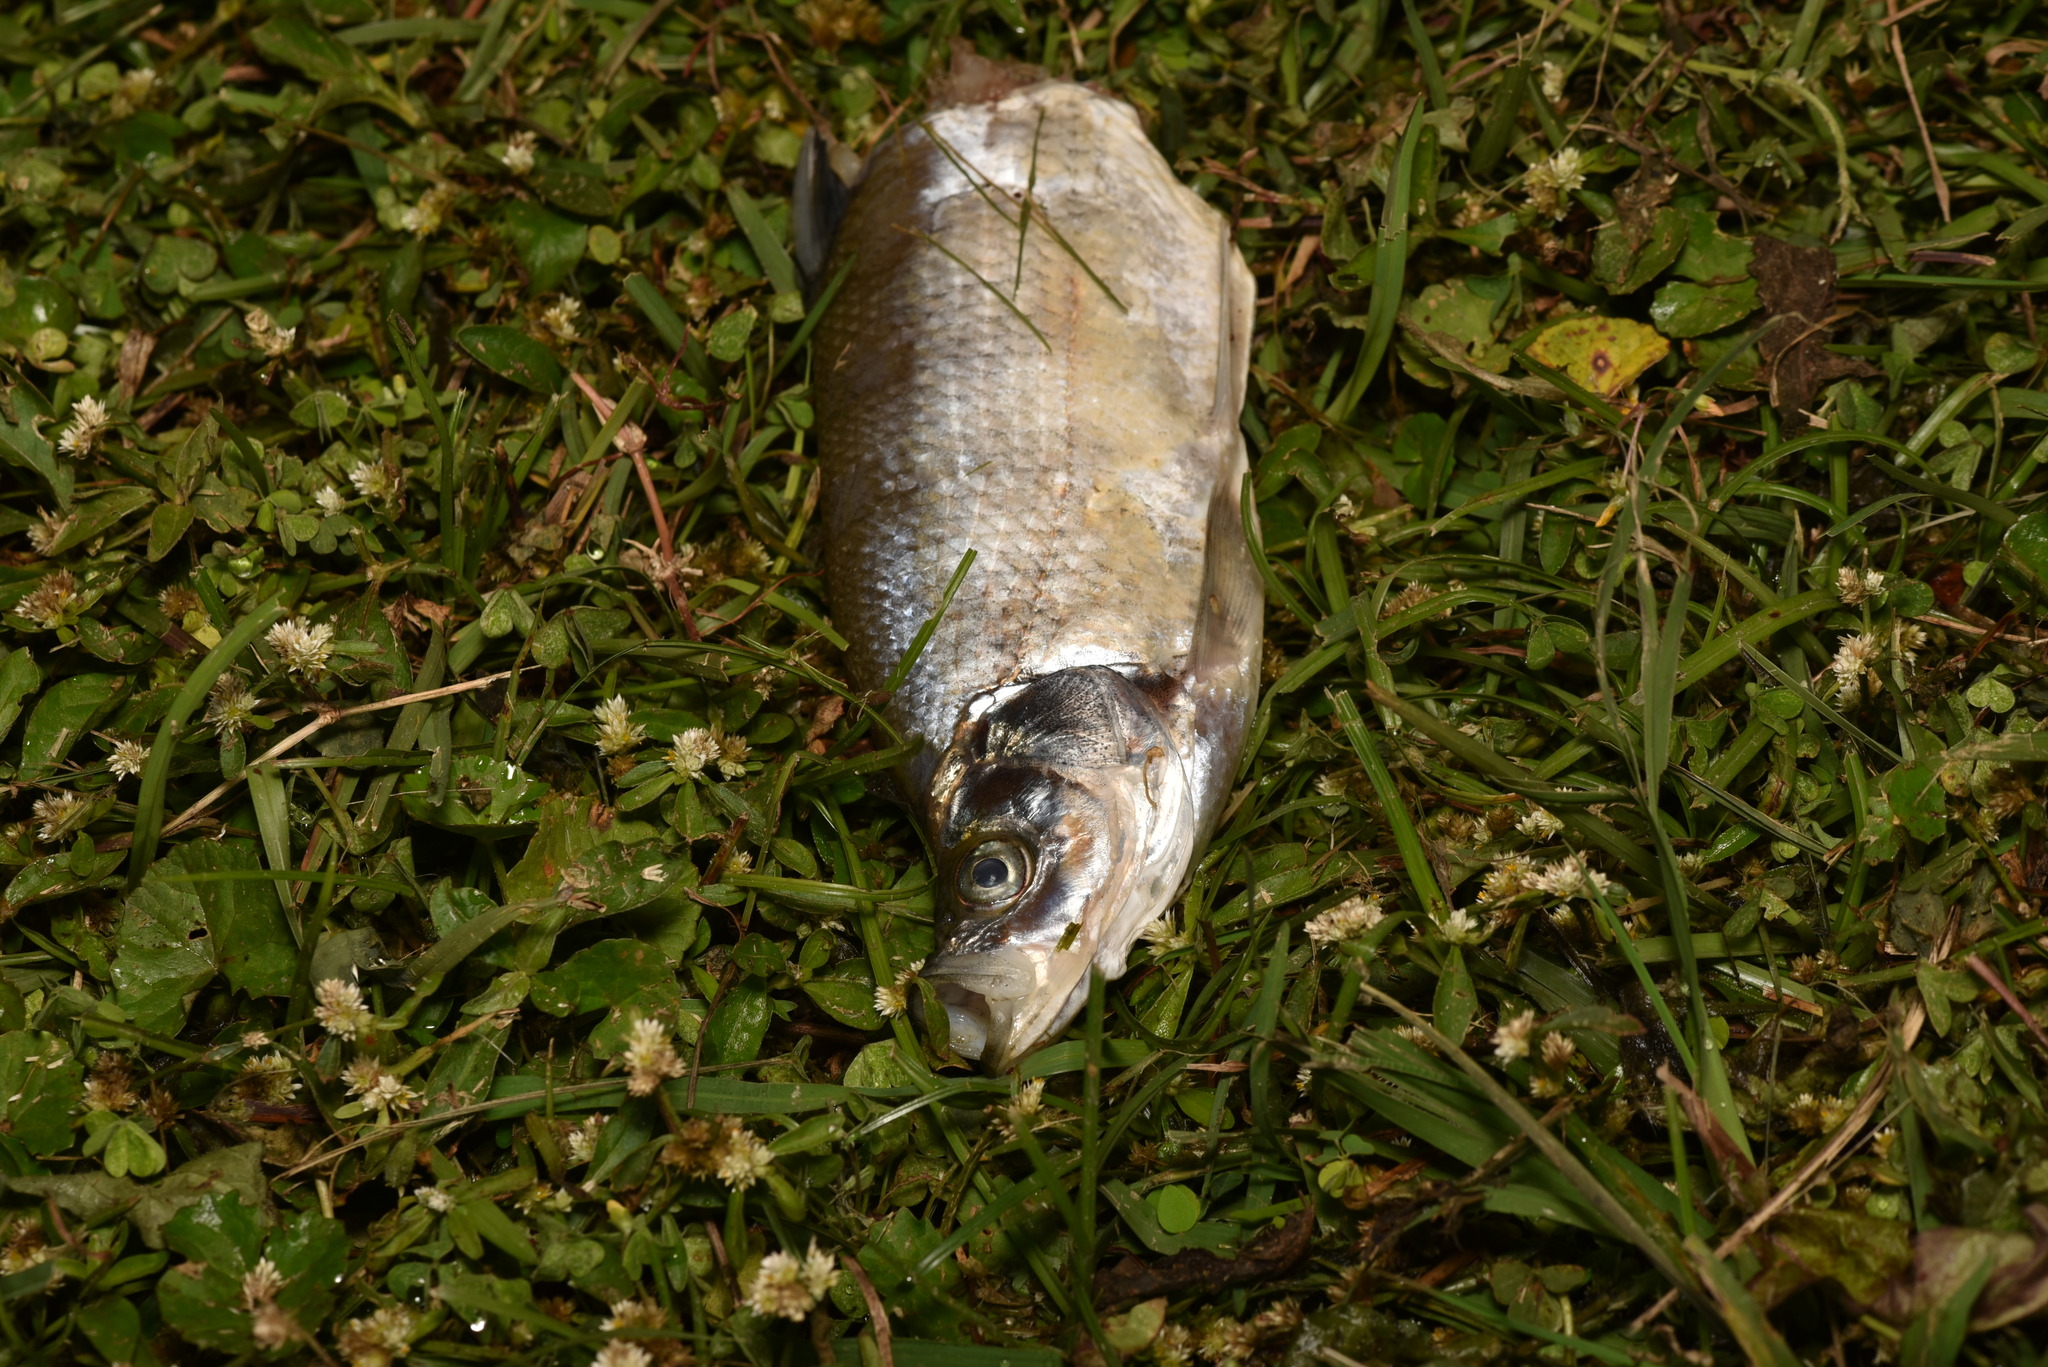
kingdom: Animalia
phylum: Chordata
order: Cypriniformes
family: Cyprinidae
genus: Chanodichthys
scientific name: Chanodichthys erythropterus
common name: Redfin culter
